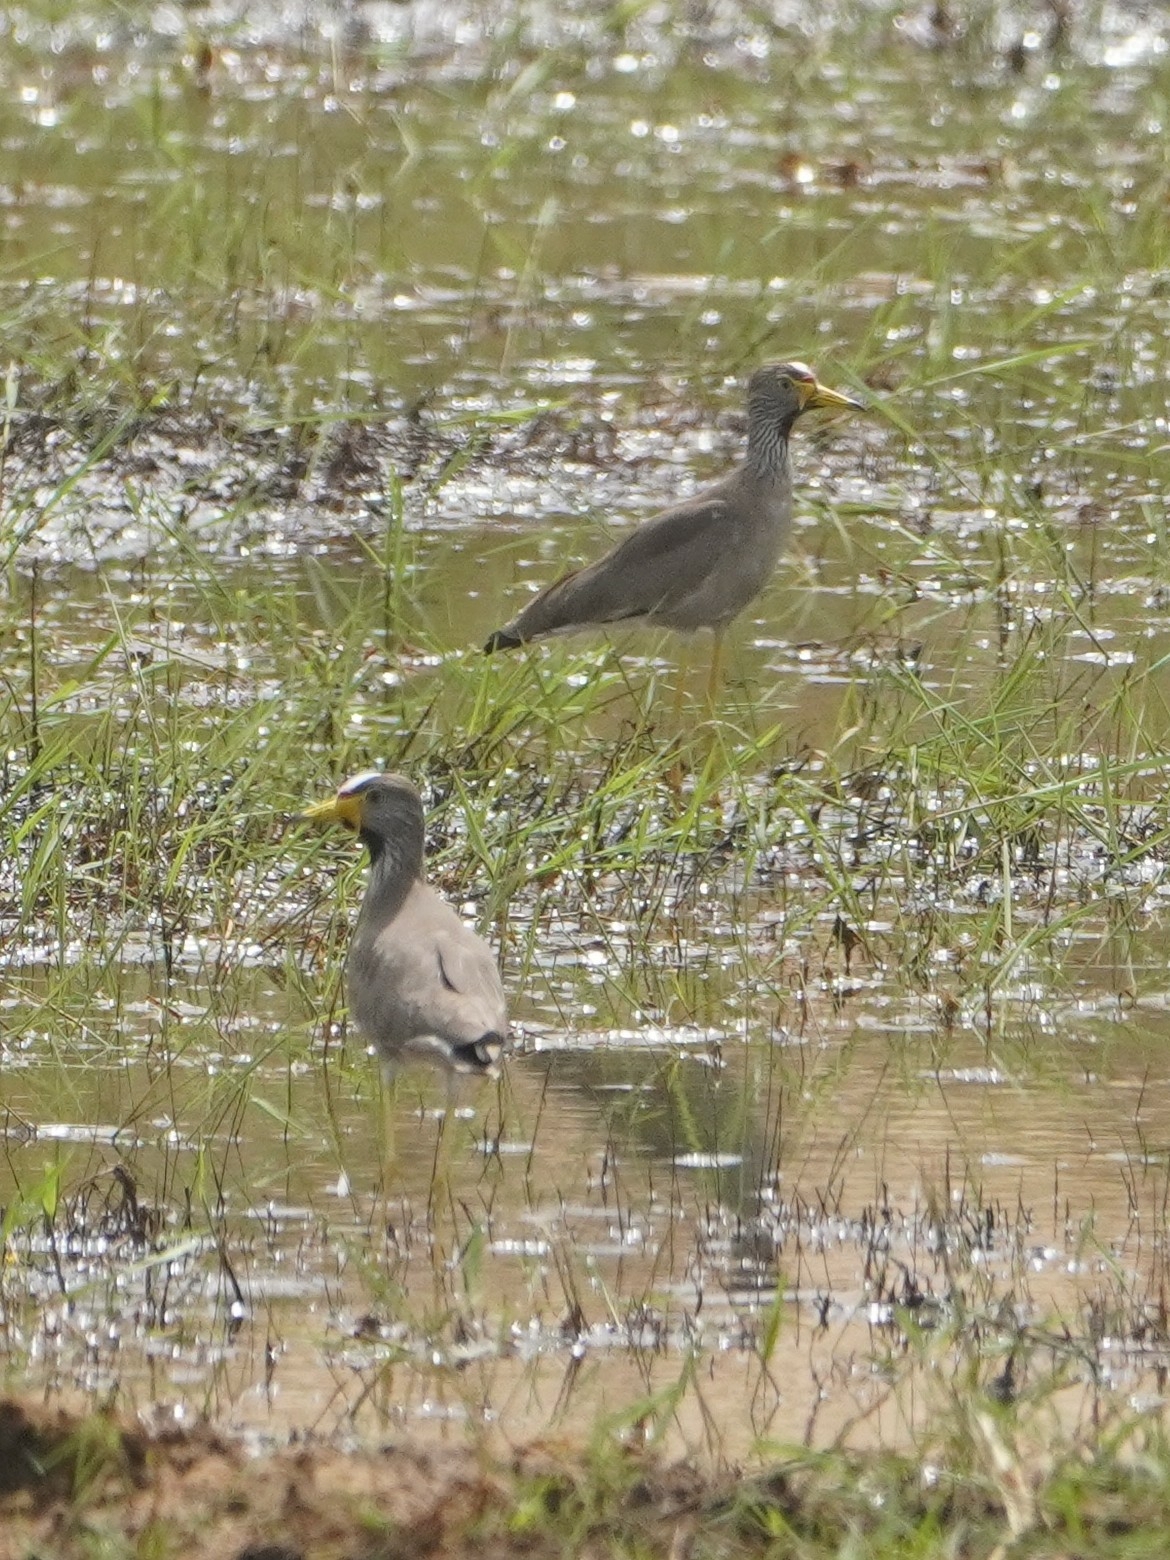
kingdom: Animalia
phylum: Chordata
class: Aves
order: Charadriiformes
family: Charadriidae
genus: Vanellus
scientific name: Vanellus senegallus
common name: African wattled lapwing
